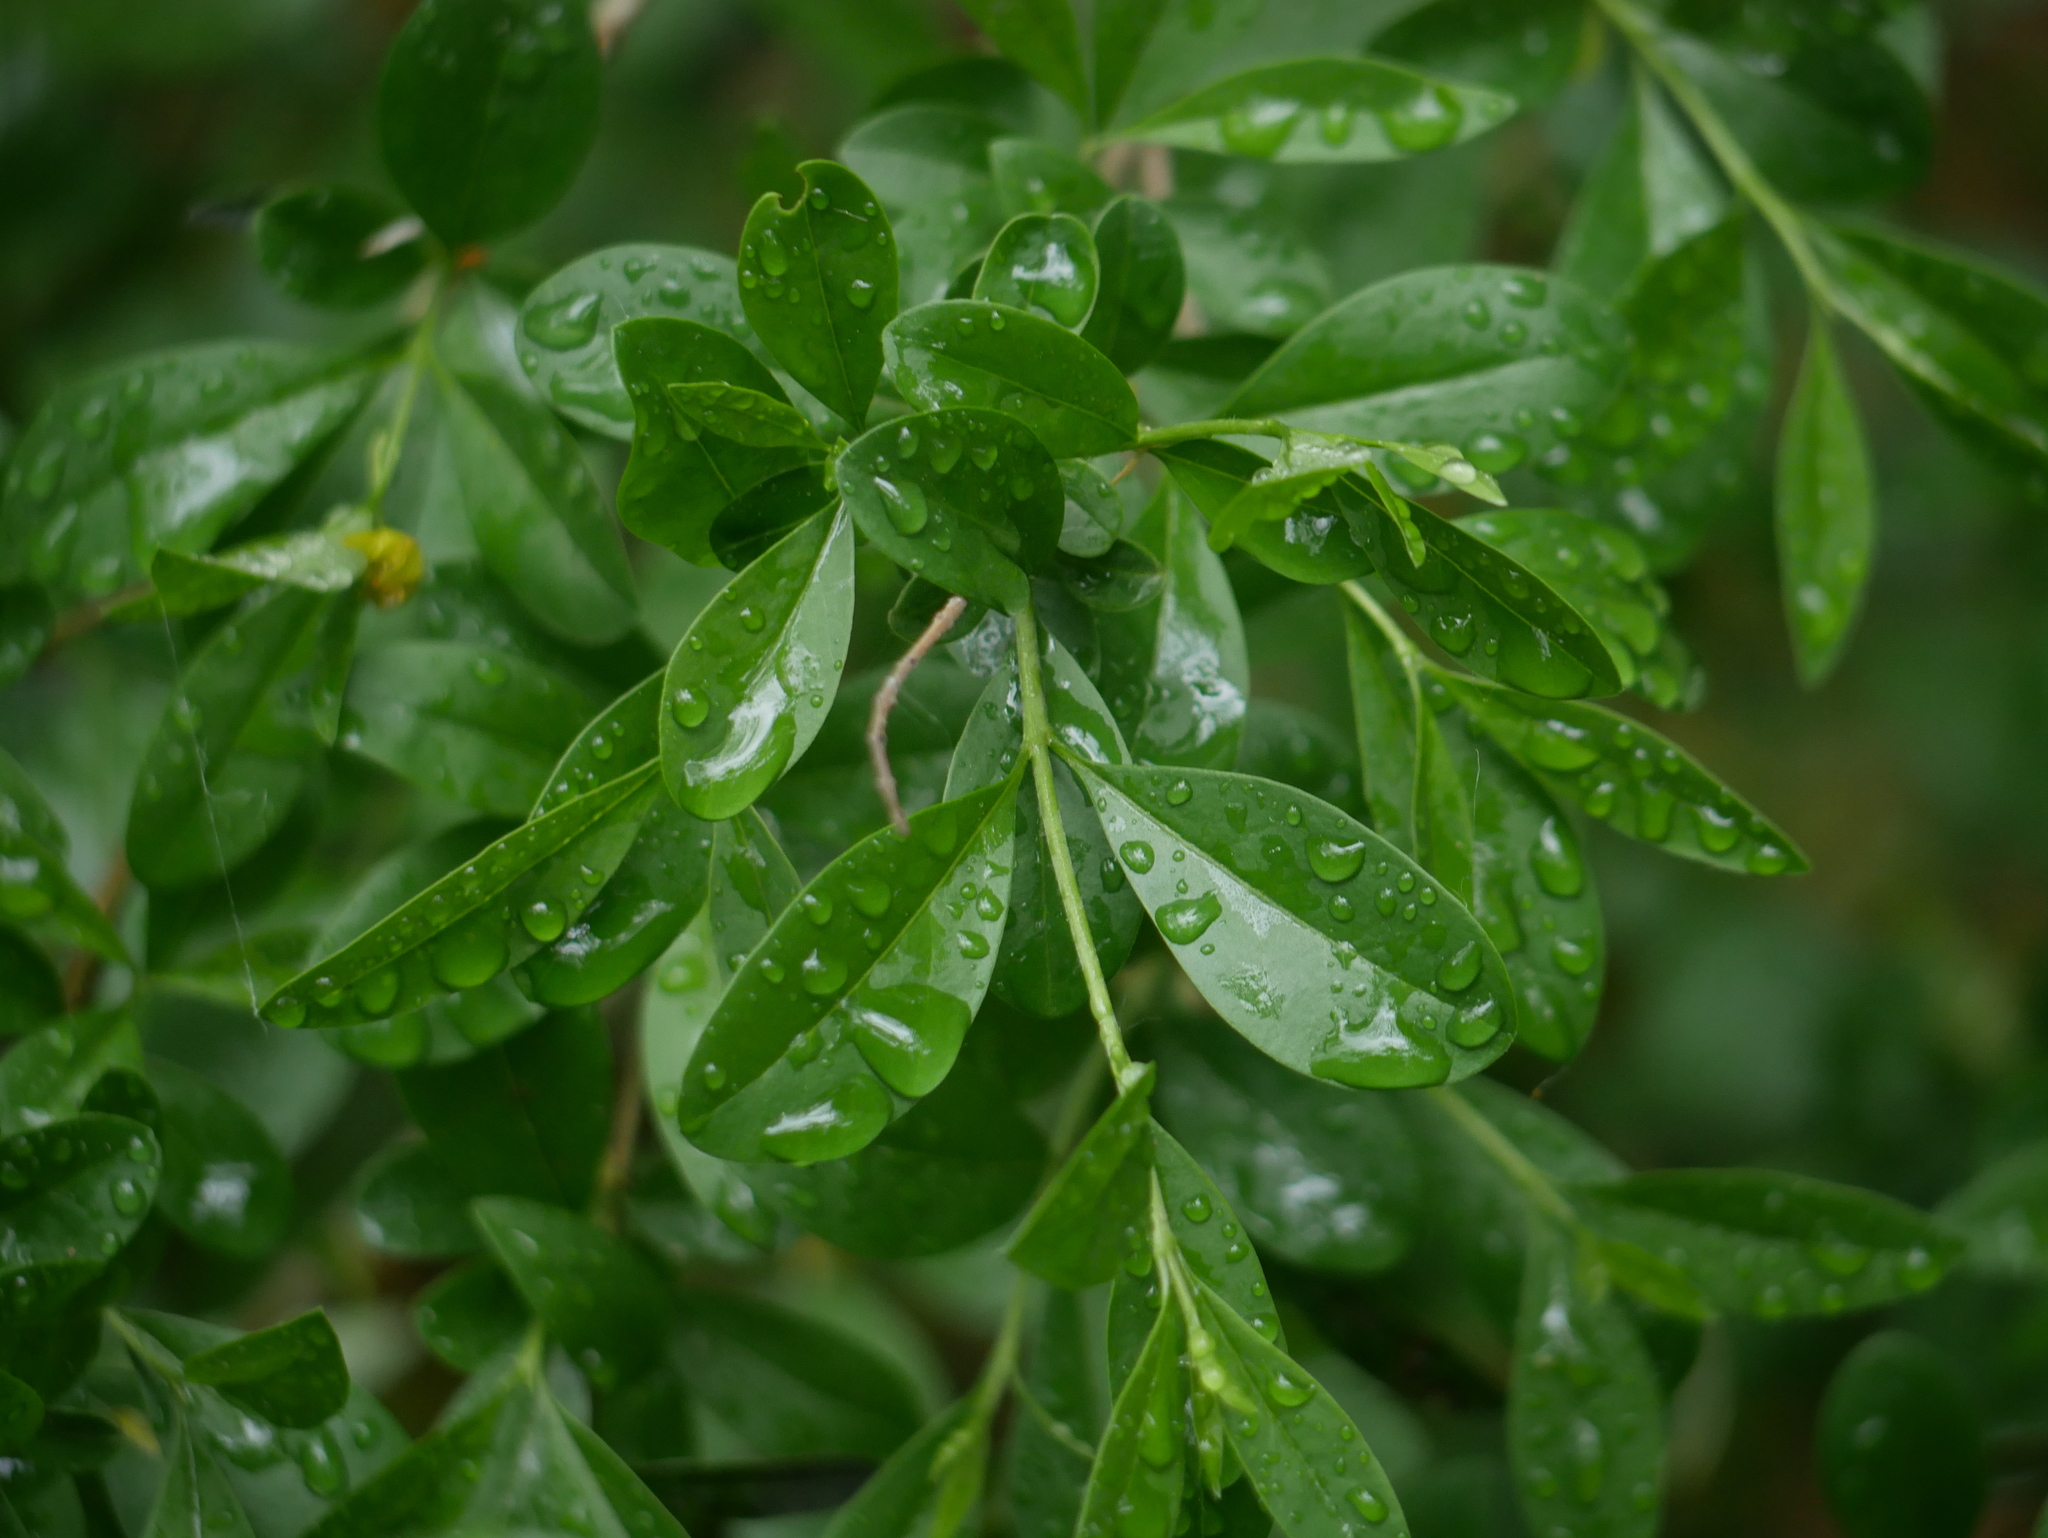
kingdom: Plantae
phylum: Tracheophyta
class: Magnoliopsida
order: Lamiales
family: Oleaceae
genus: Ligustrum
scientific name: Ligustrum vulgare
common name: Wild privet
